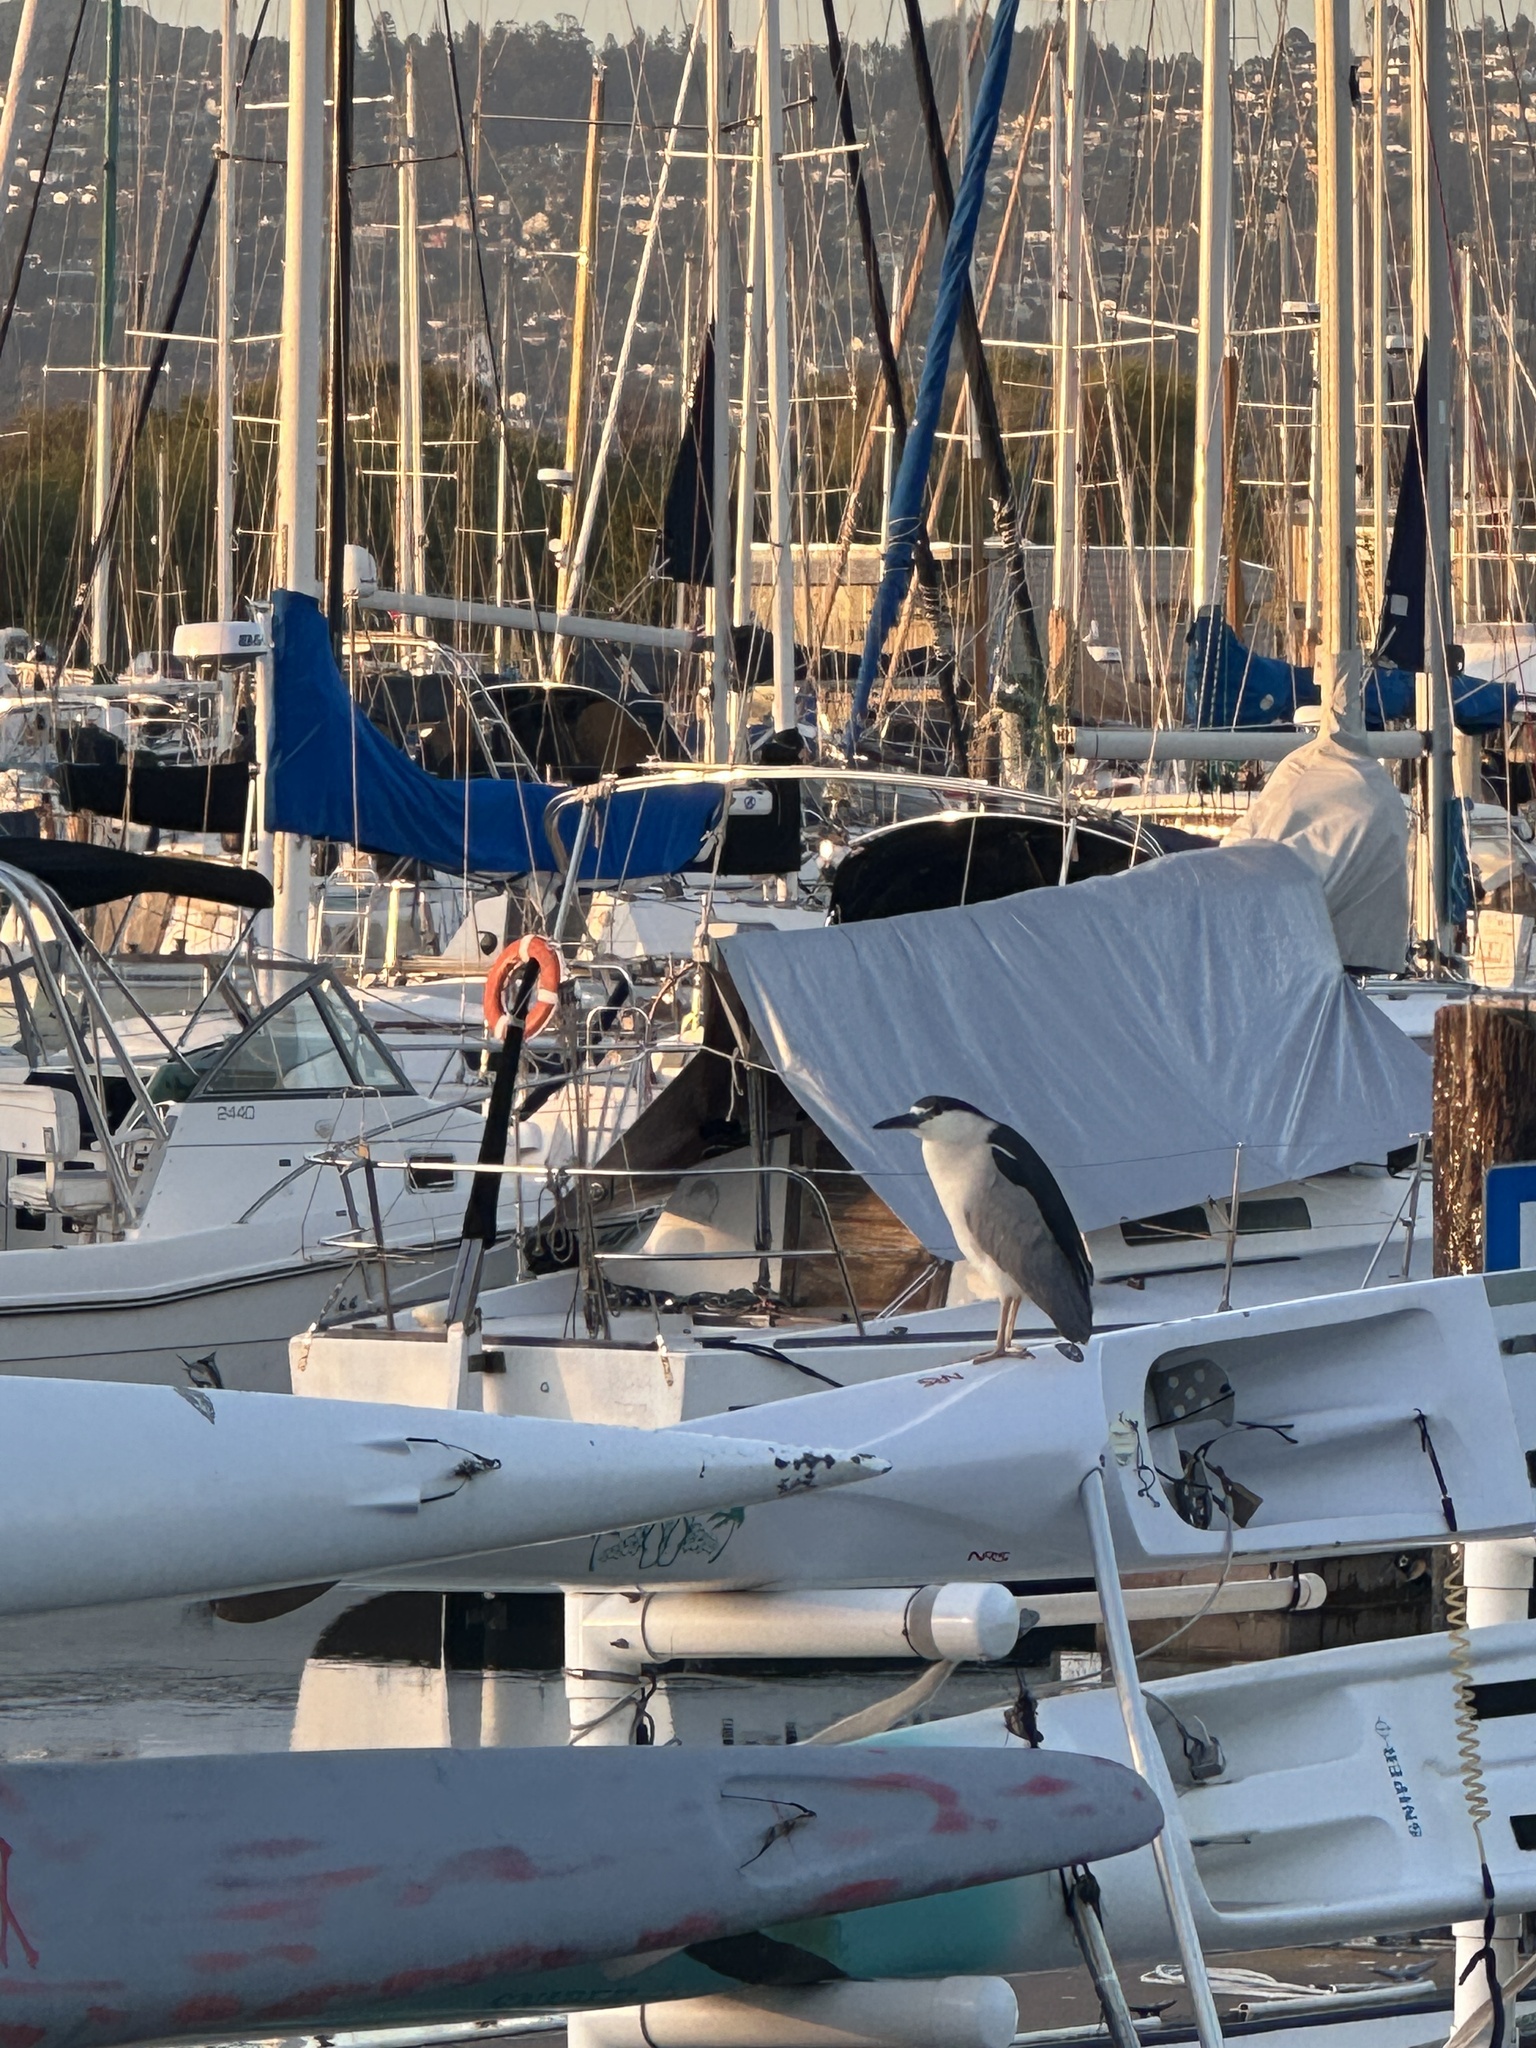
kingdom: Animalia
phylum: Chordata
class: Aves
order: Pelecaniformes
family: Ardeidae
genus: Nycticorax
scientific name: Nycticorax nycticorax
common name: Black-crowned night heron
